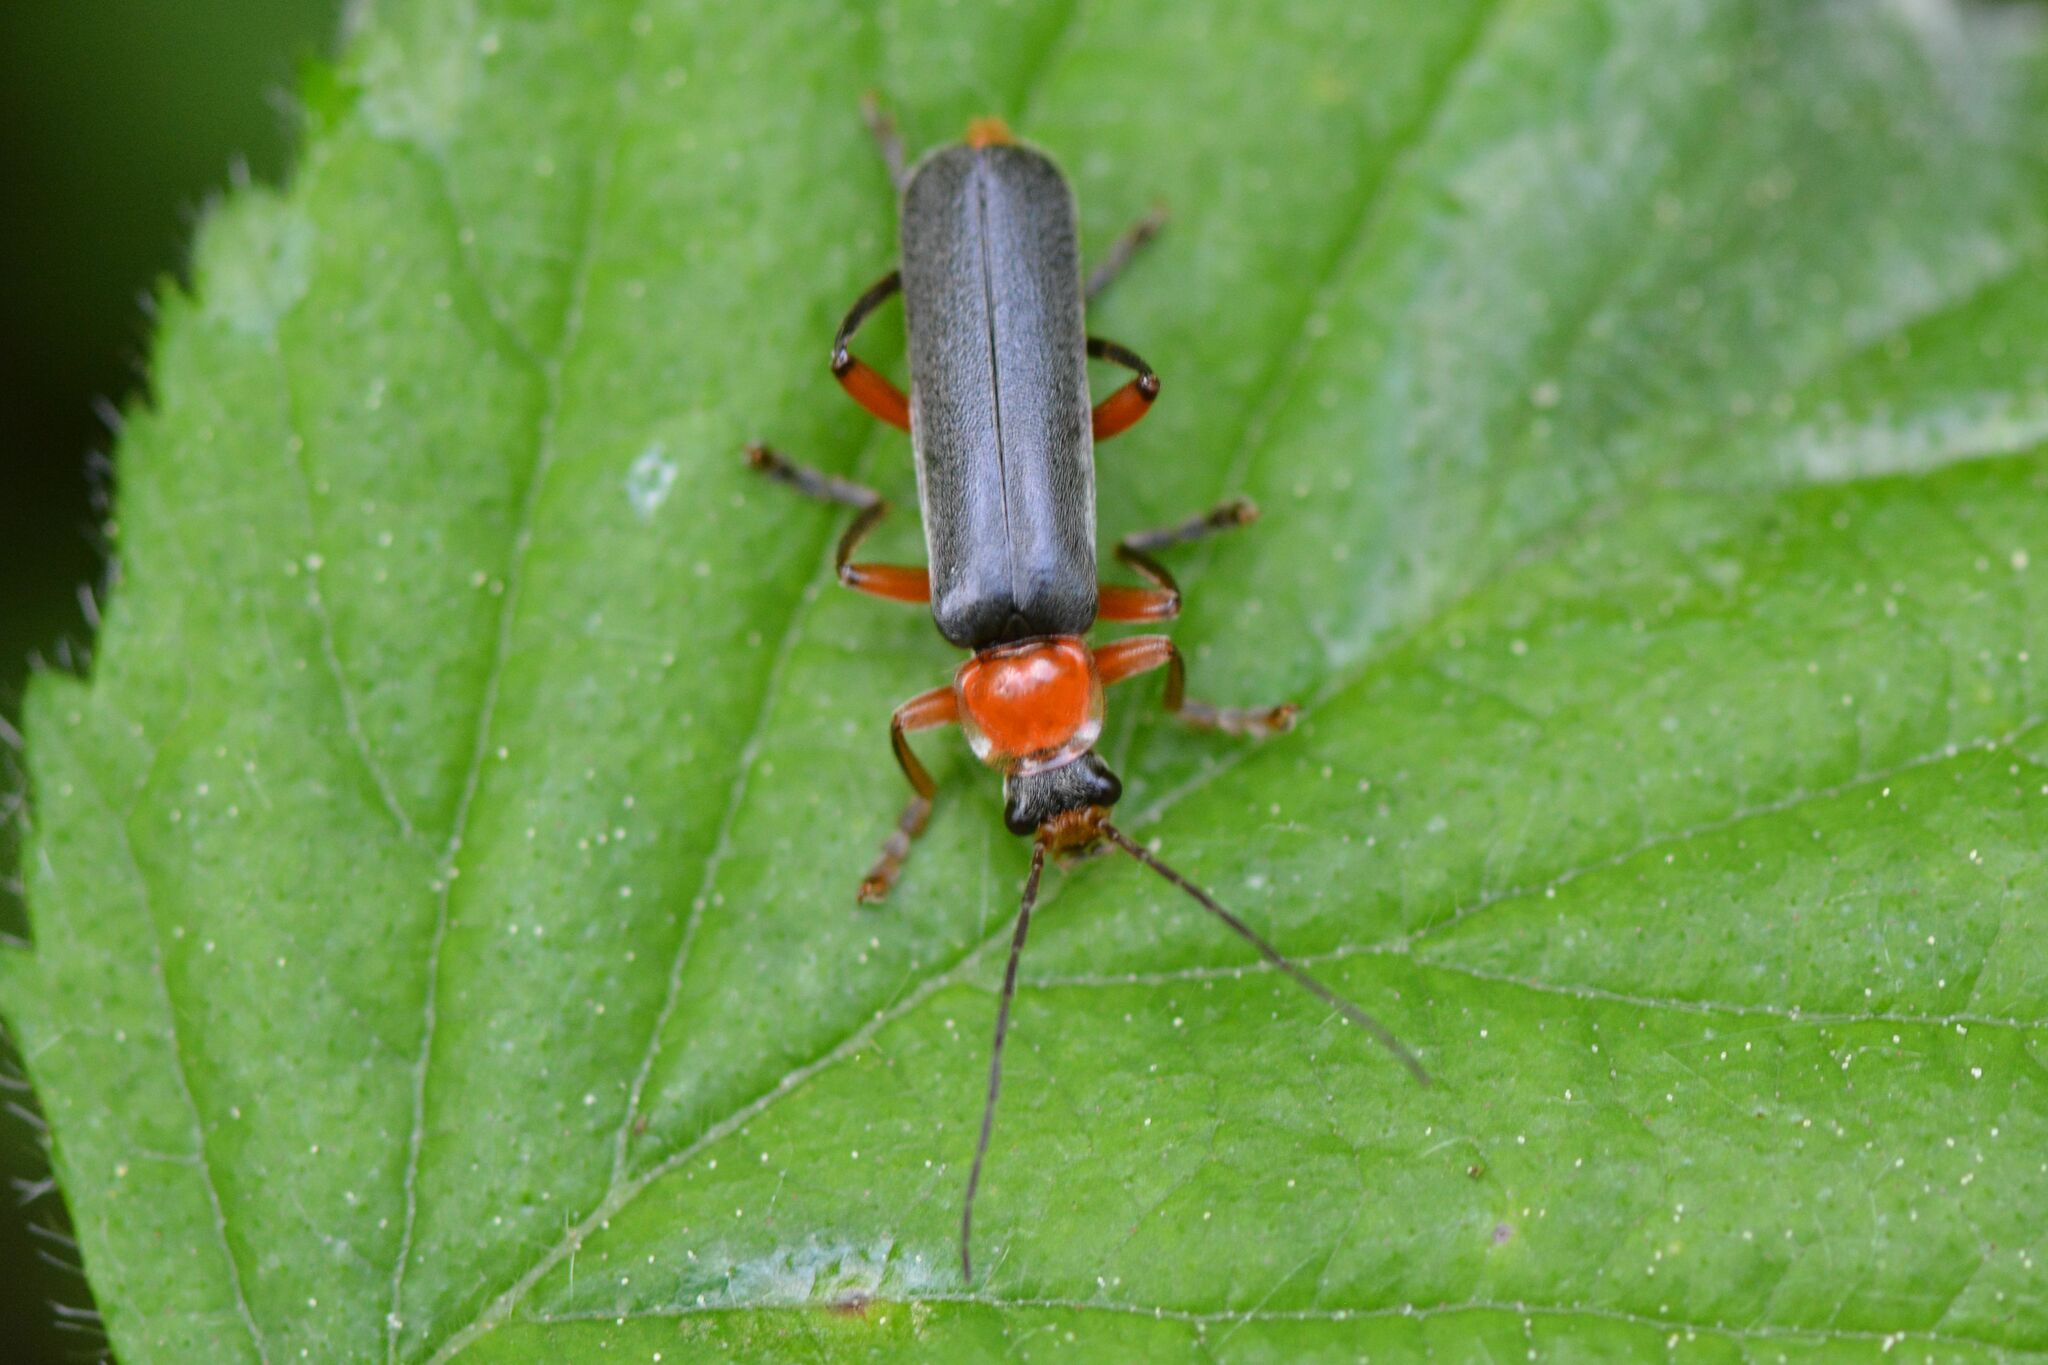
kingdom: Animalia
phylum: Arthropoda
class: Insecta
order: Coleoptera
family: Cantharidae
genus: Cantharis
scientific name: Cantharis pellucida
